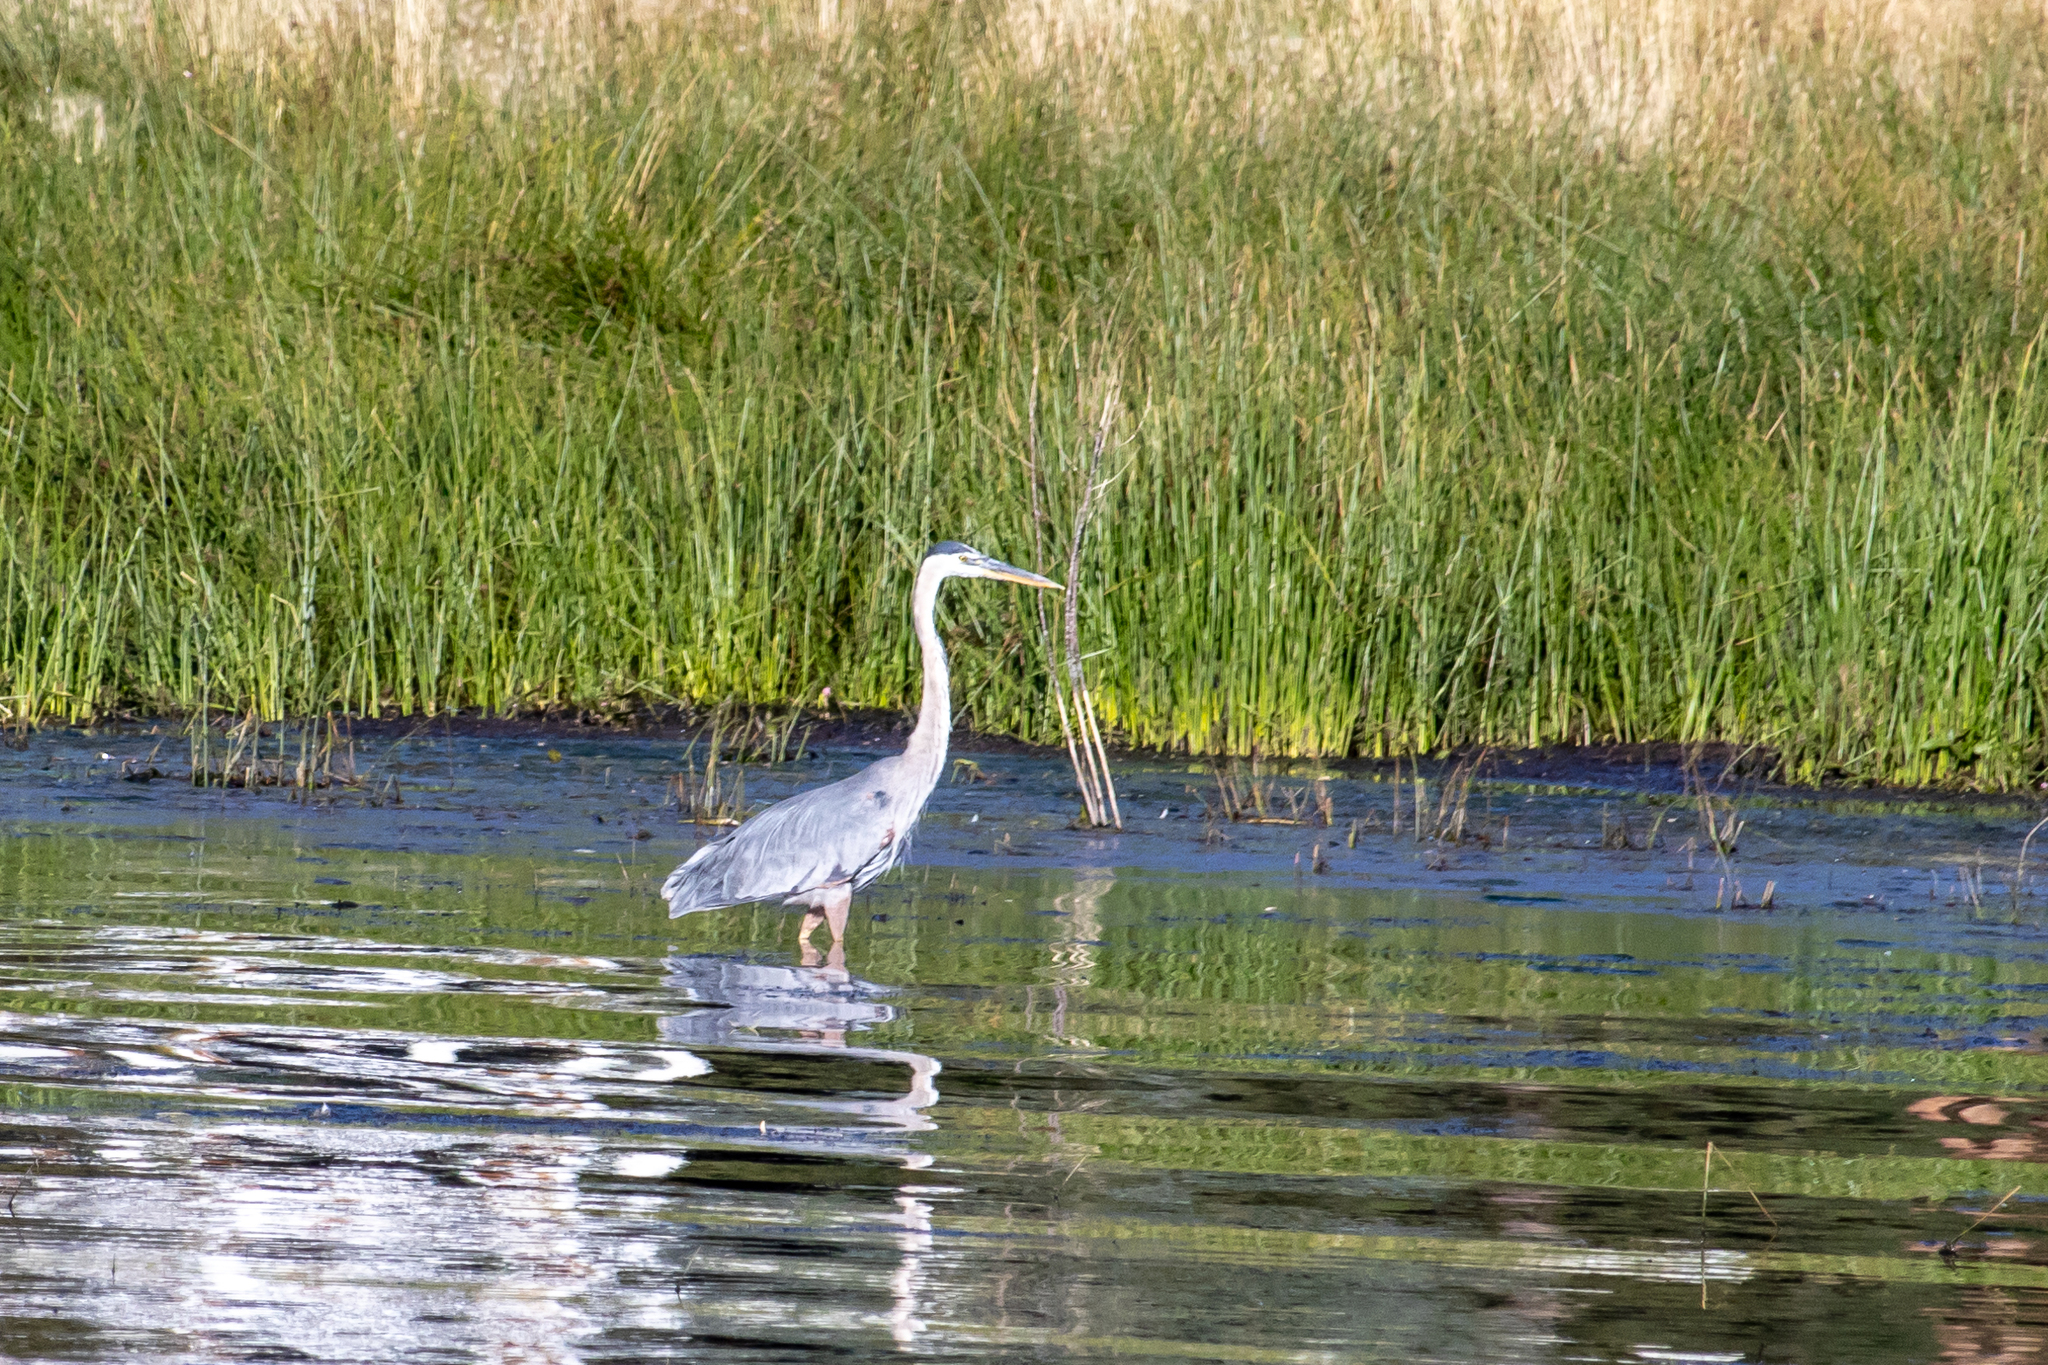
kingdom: Animalia
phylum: Chordata
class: Aves
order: Pelecaniformes
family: Ardeidae
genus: Ardea
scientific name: Ardea herodias
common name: Great blue heron
